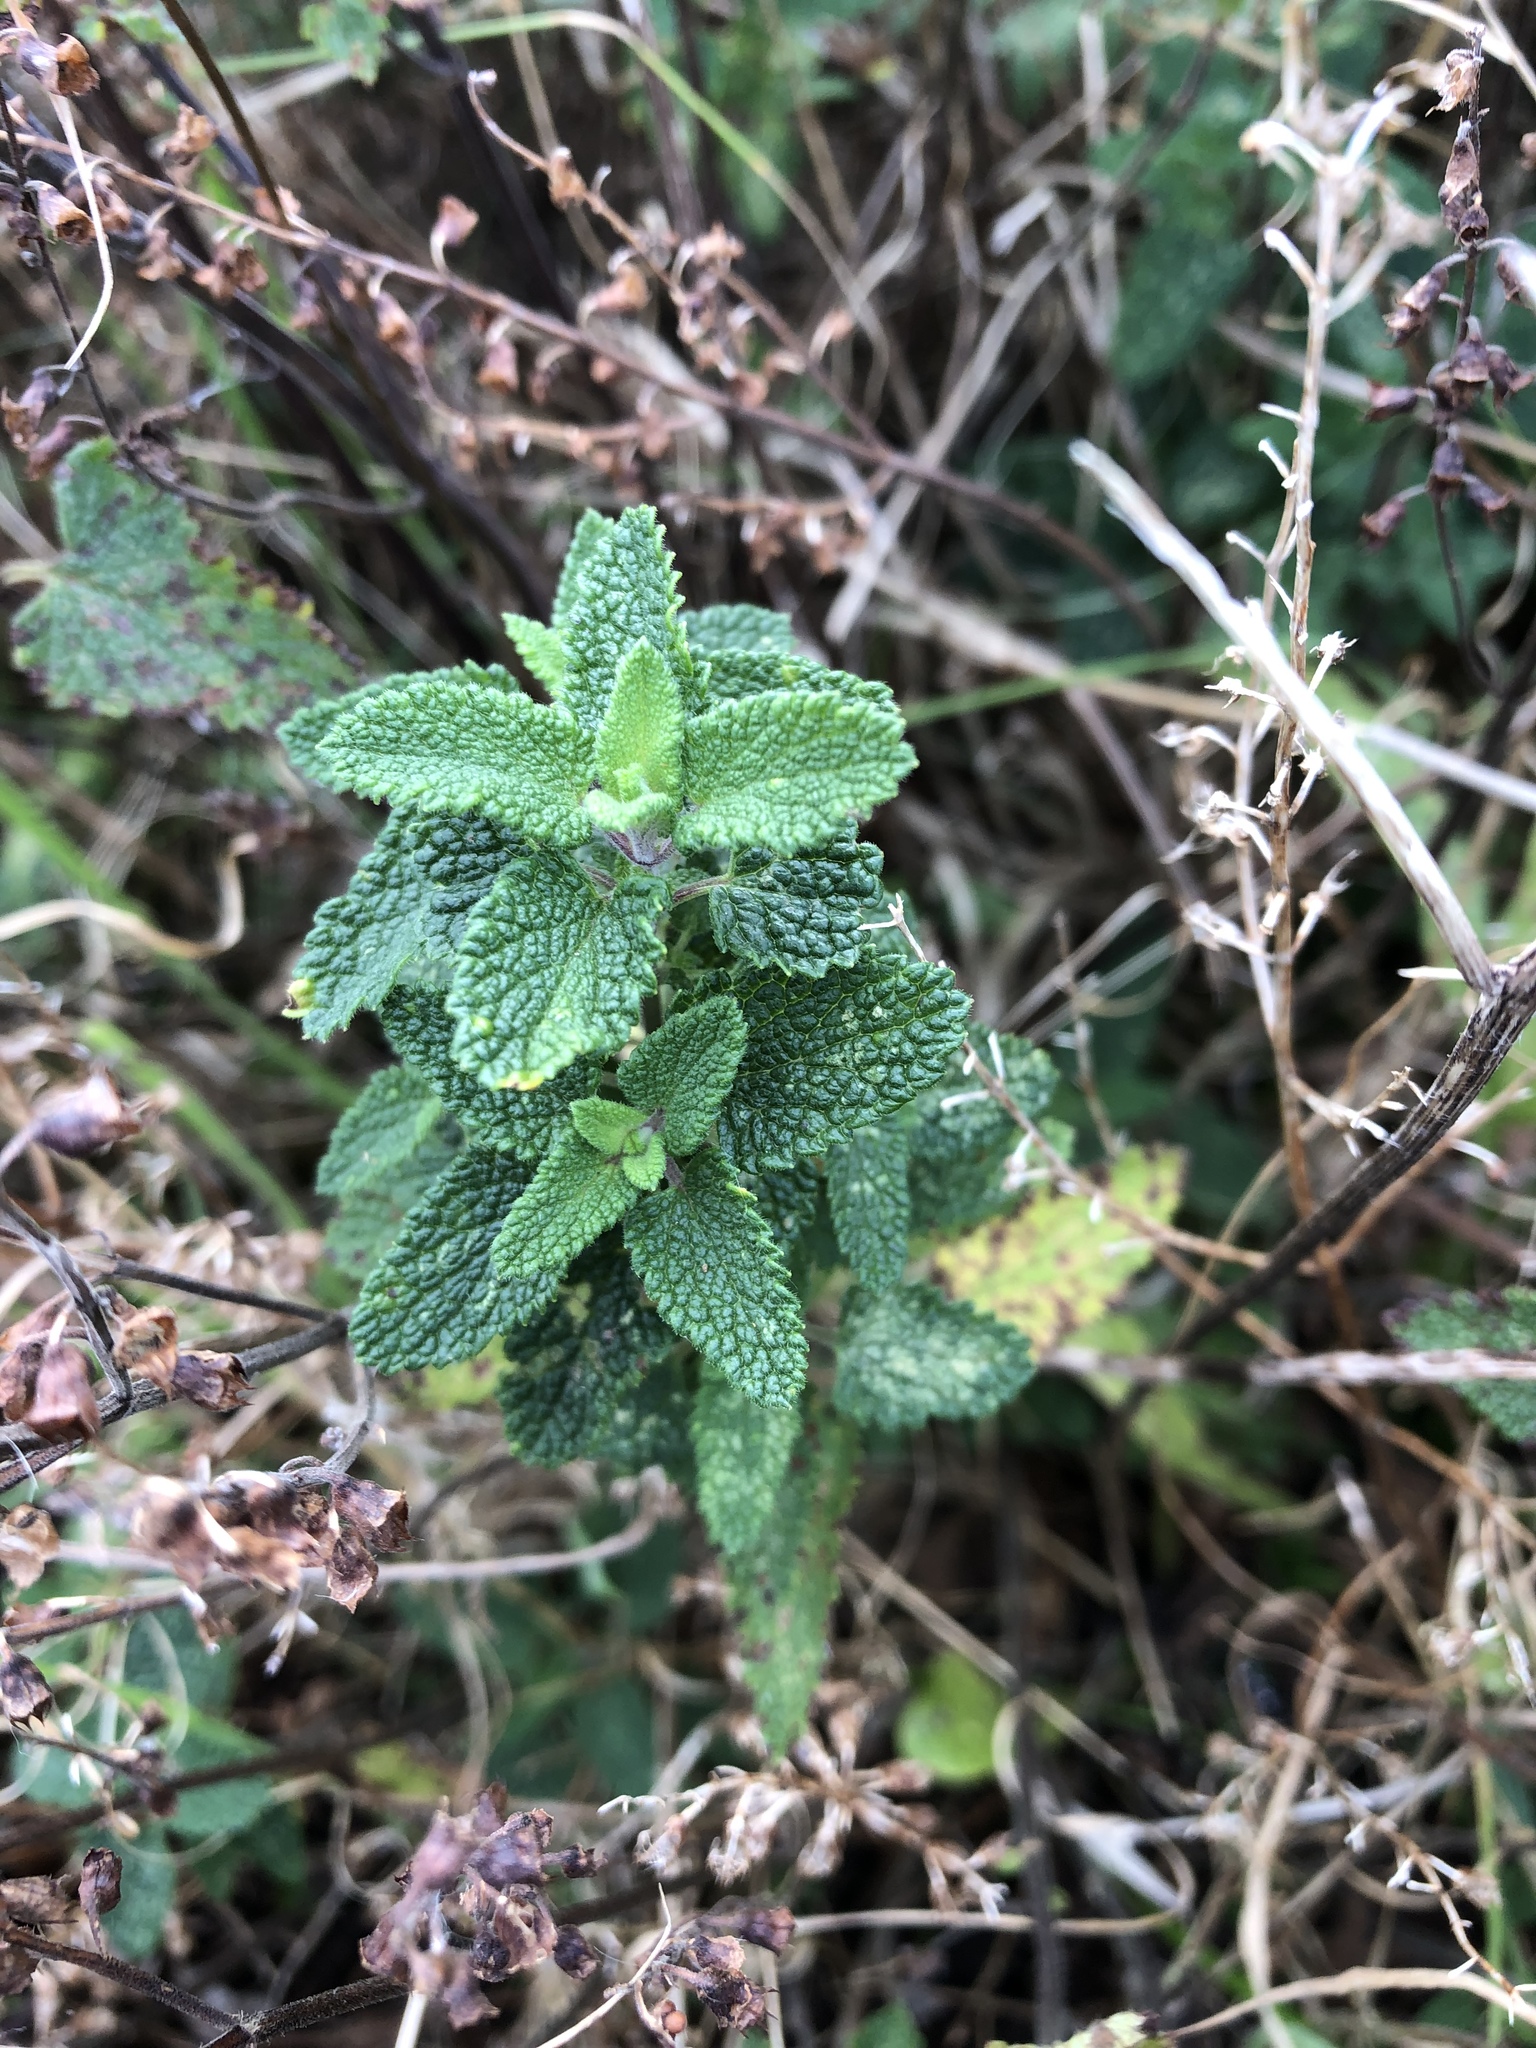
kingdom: Plantae
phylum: Tracheophyta
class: Magnoliopsida
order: Lamiales
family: Lamiaceae
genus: Teucrium
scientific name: Teucrium scorodonia
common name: Woodland germander
